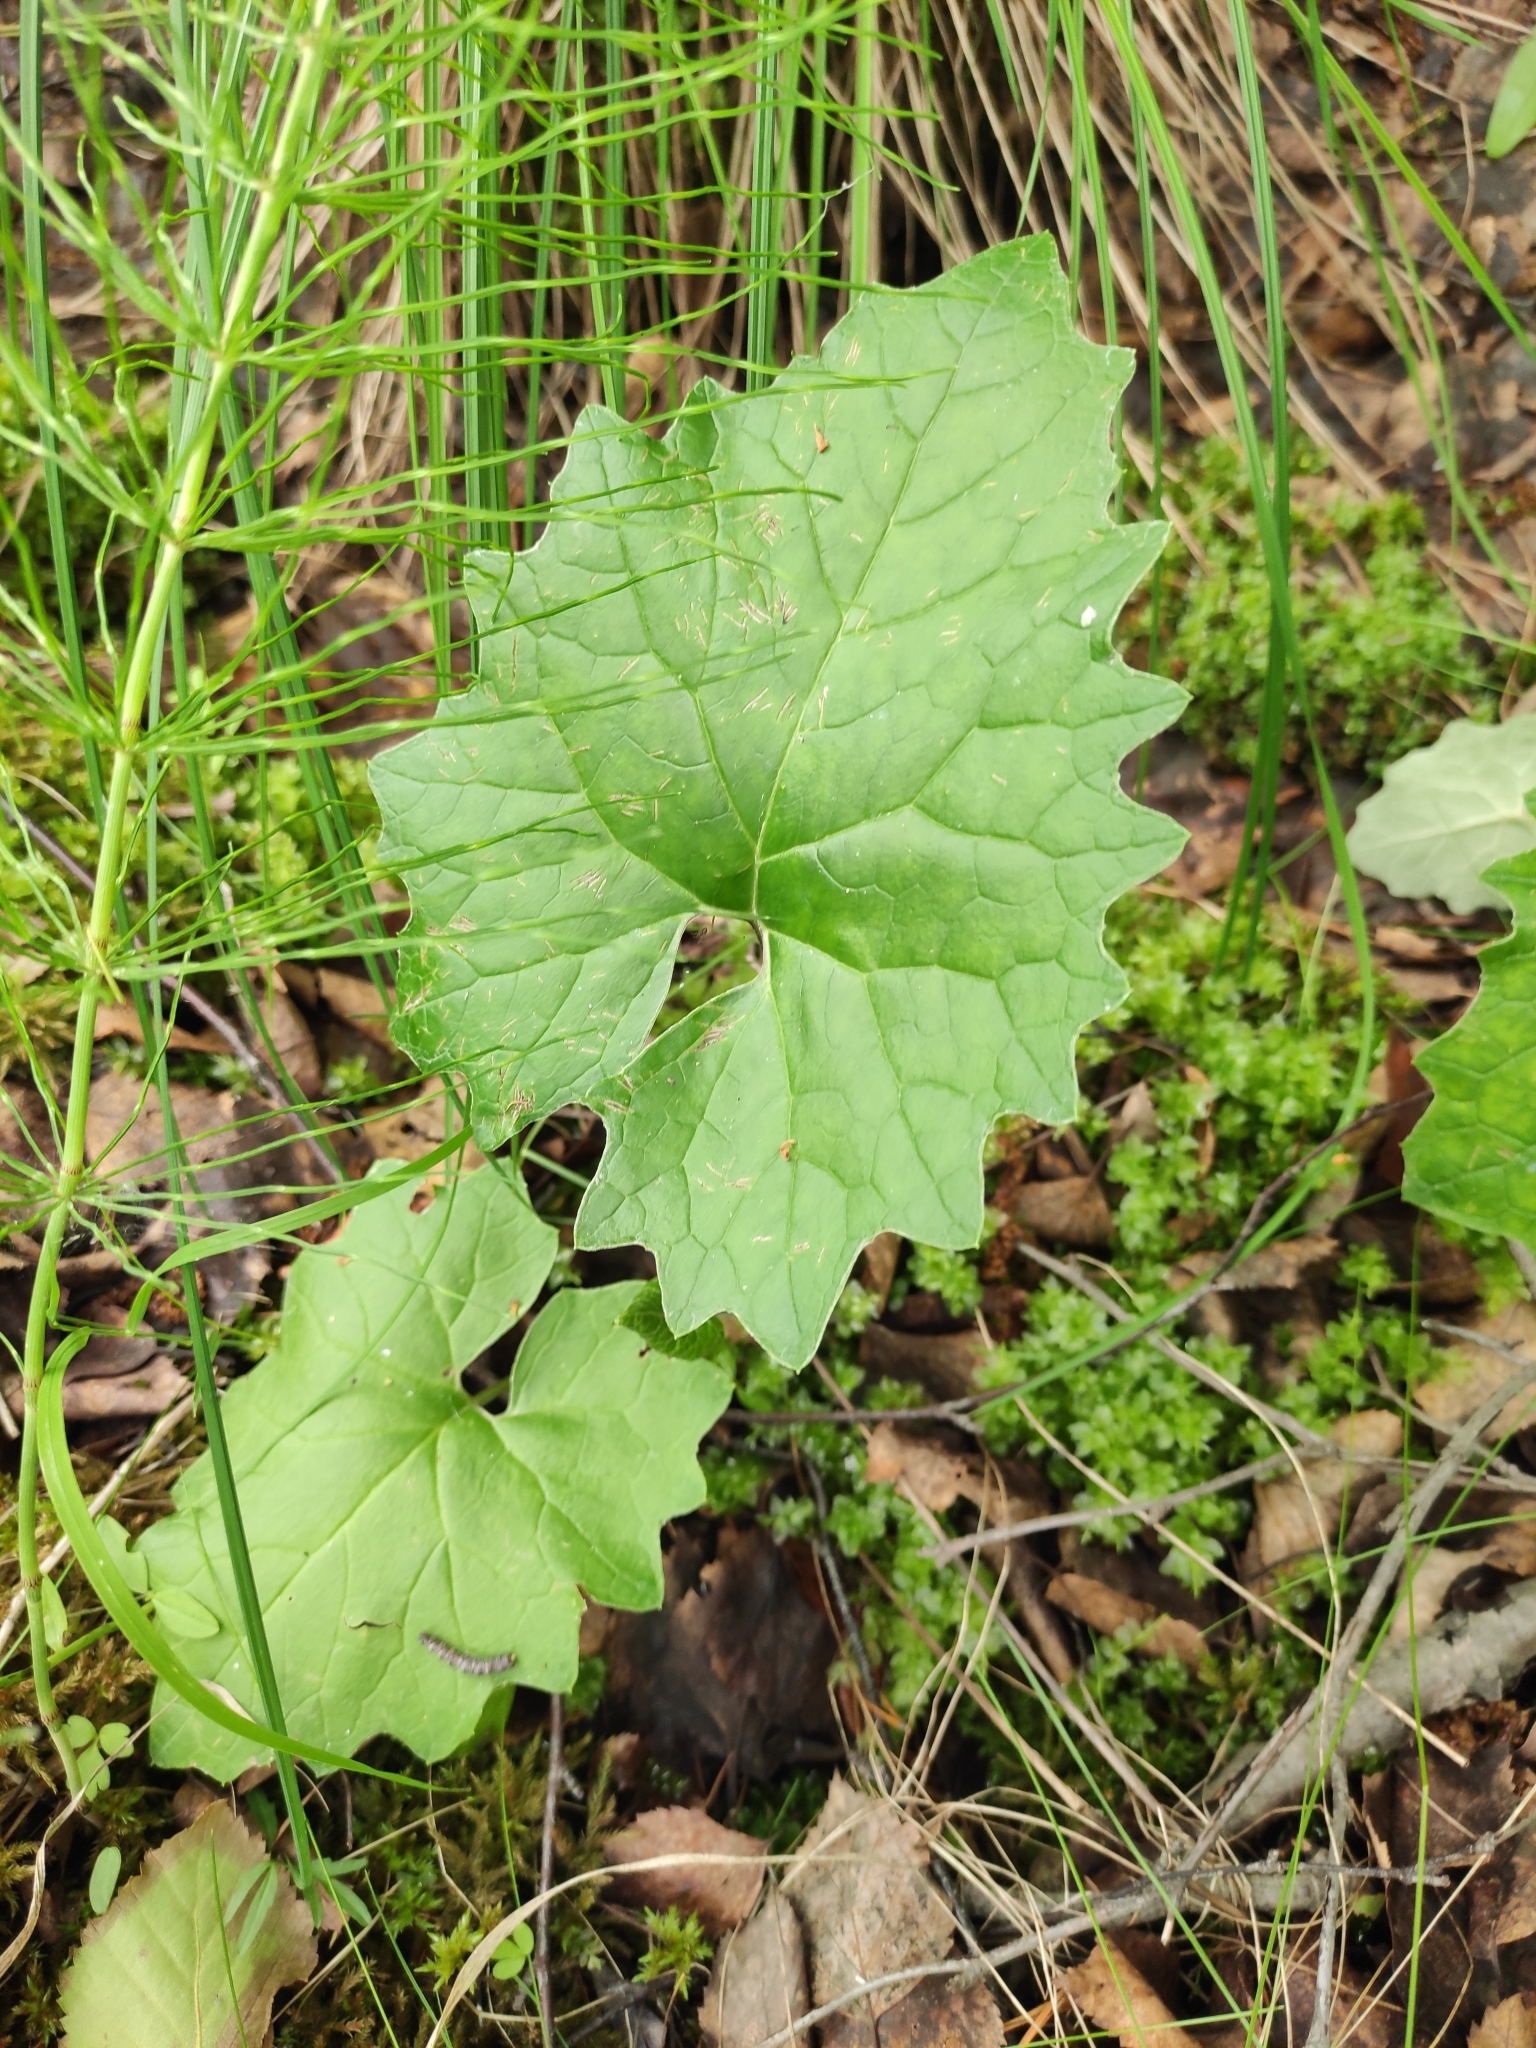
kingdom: Plantae
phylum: Tracheophyta
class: Magnoliopsida
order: Asterales
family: Asteraceae
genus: Petasites
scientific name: Petasites frigidus
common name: Arctic butterbur
